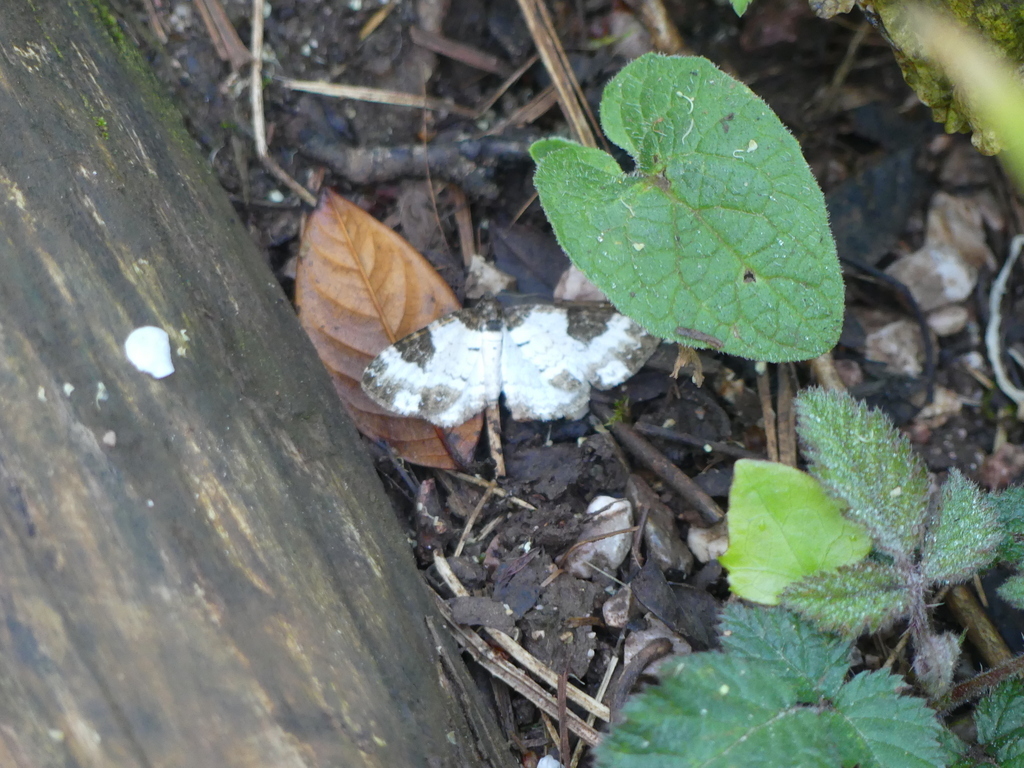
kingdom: Animalia
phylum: Arthropoda
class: Insecta
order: Lepidoptera
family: Geometridae
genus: Melanthia
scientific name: Melanthia procellata
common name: Pretty chalk carpet
